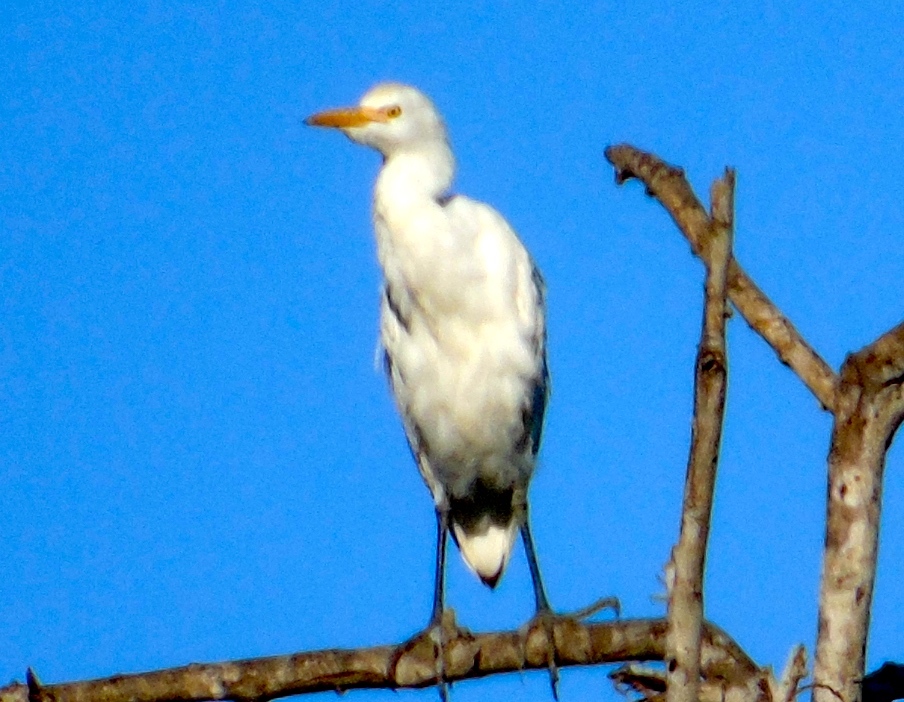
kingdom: Animalia
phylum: Chordata
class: Aves
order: Pelecaniformes
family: Ardeidae
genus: Bubulcus
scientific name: Bubulcus ibis
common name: Cattle egret
